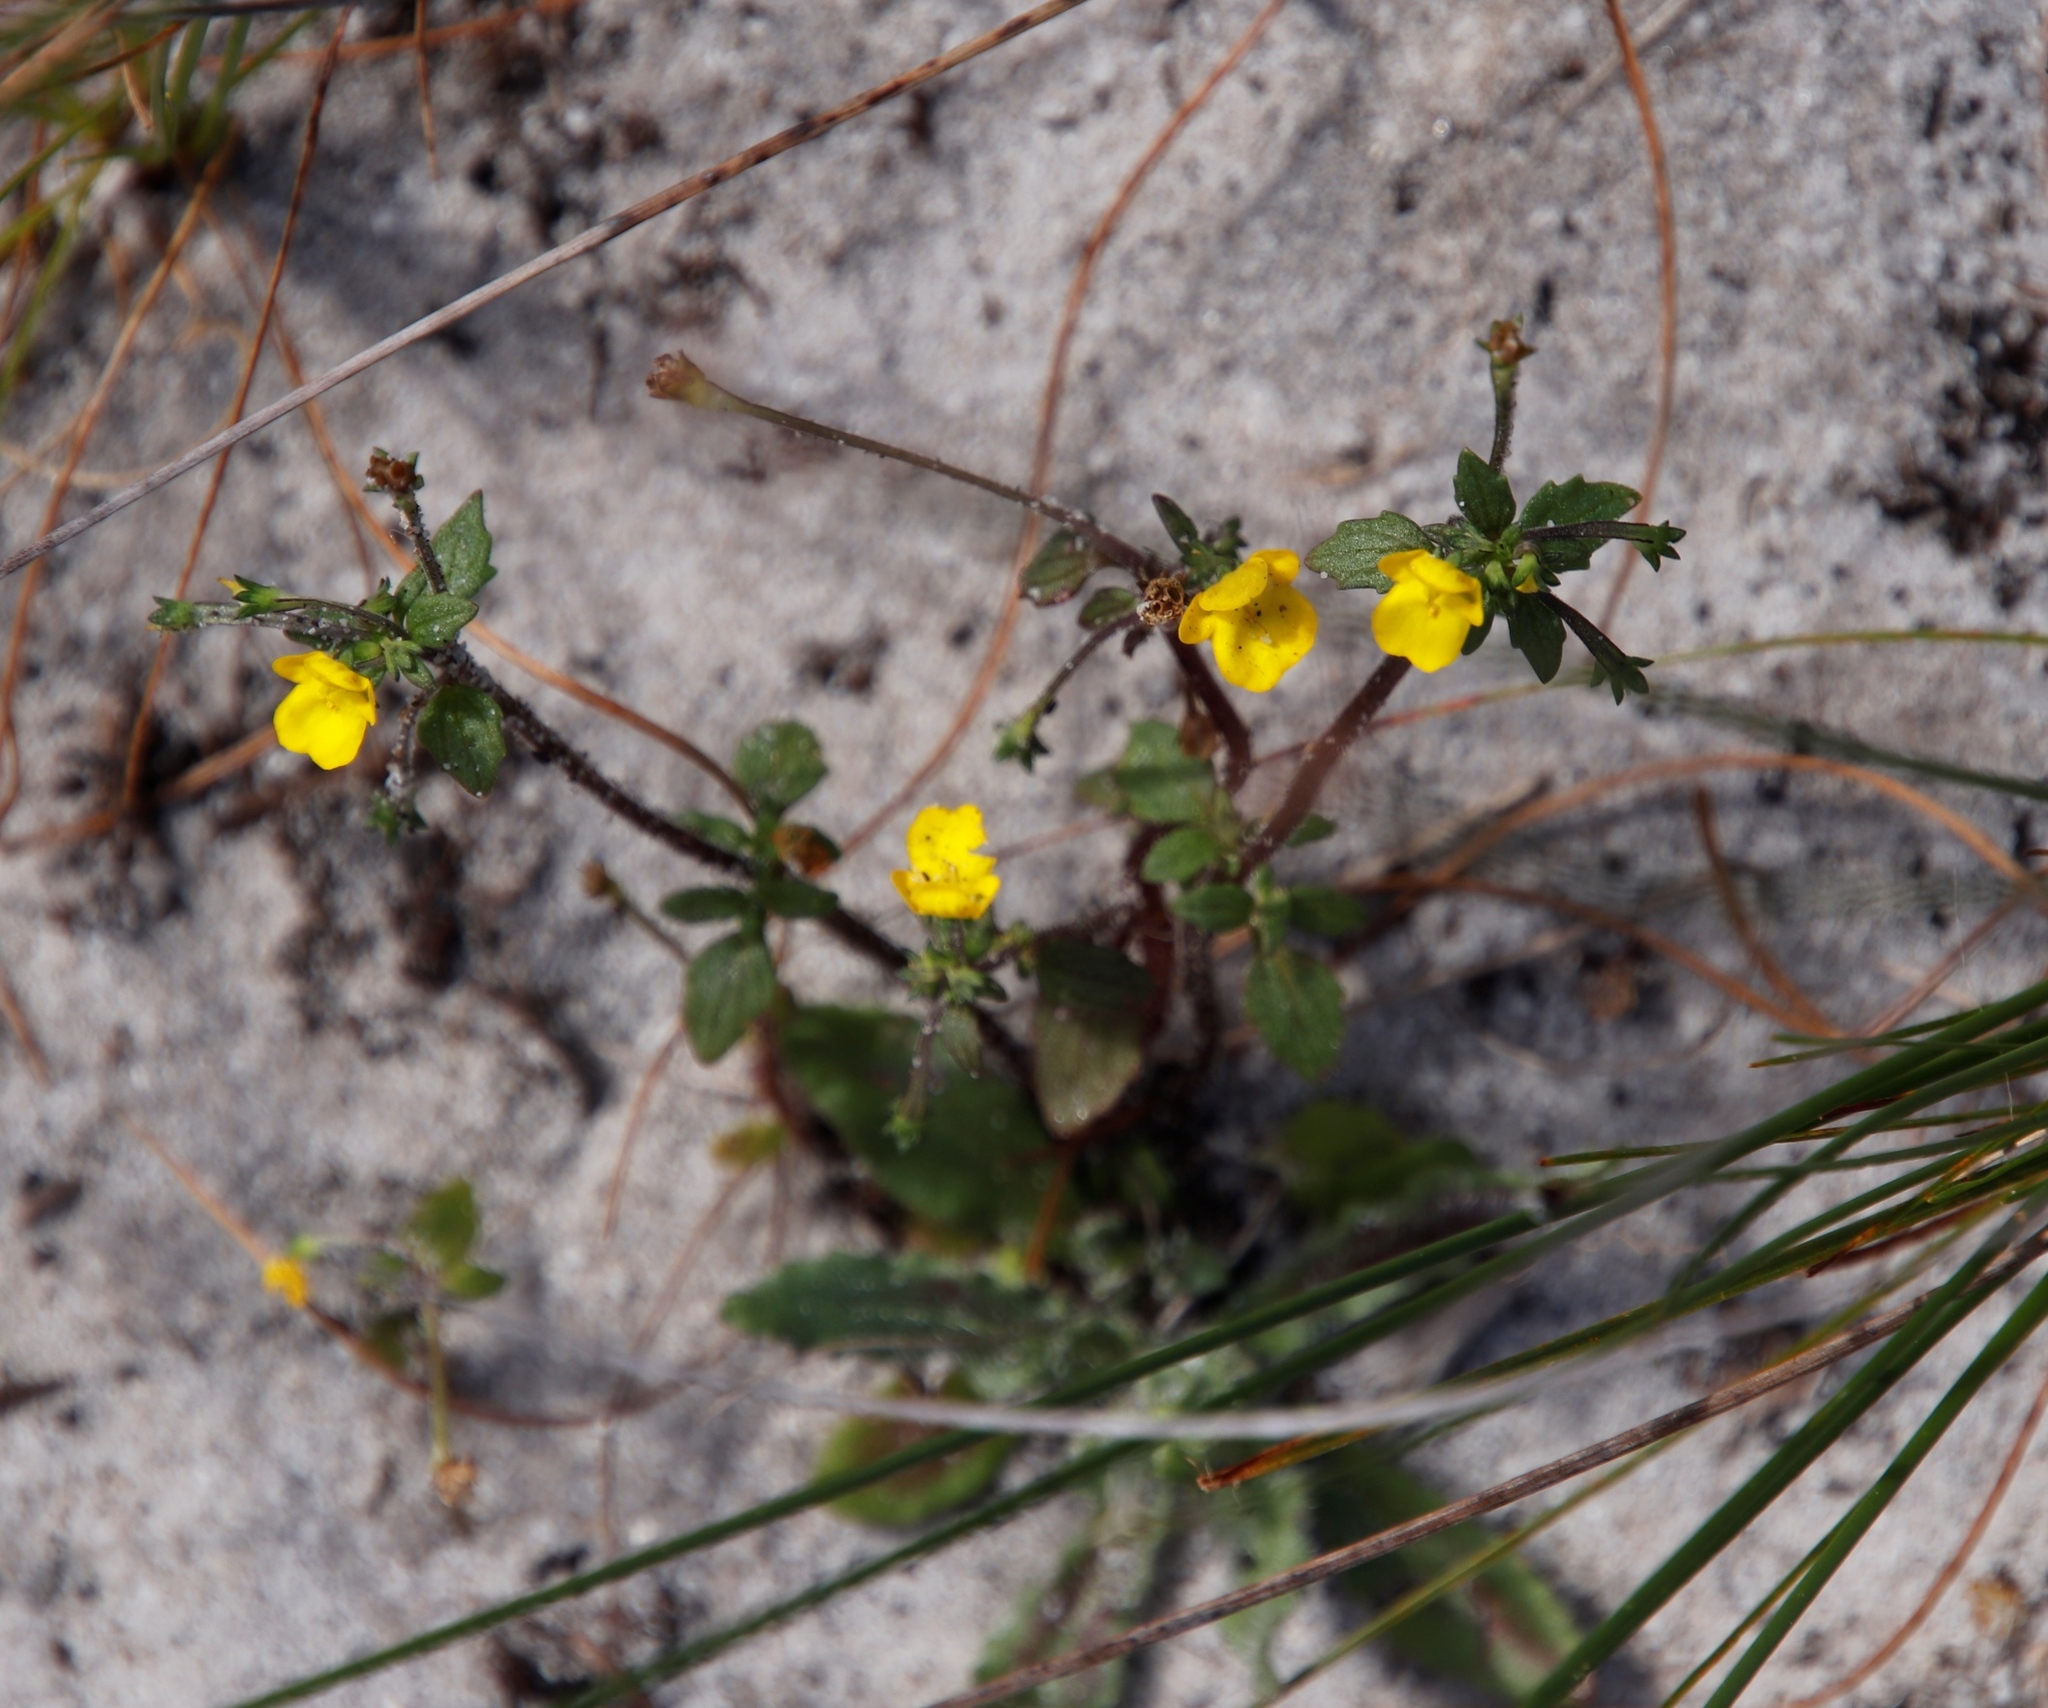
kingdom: Plantae
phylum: Tracheophyta
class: Magnoliopsida
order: Lamiales
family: Scrophulariaceae
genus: Hemimeris
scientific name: Hemimeris racemosa
